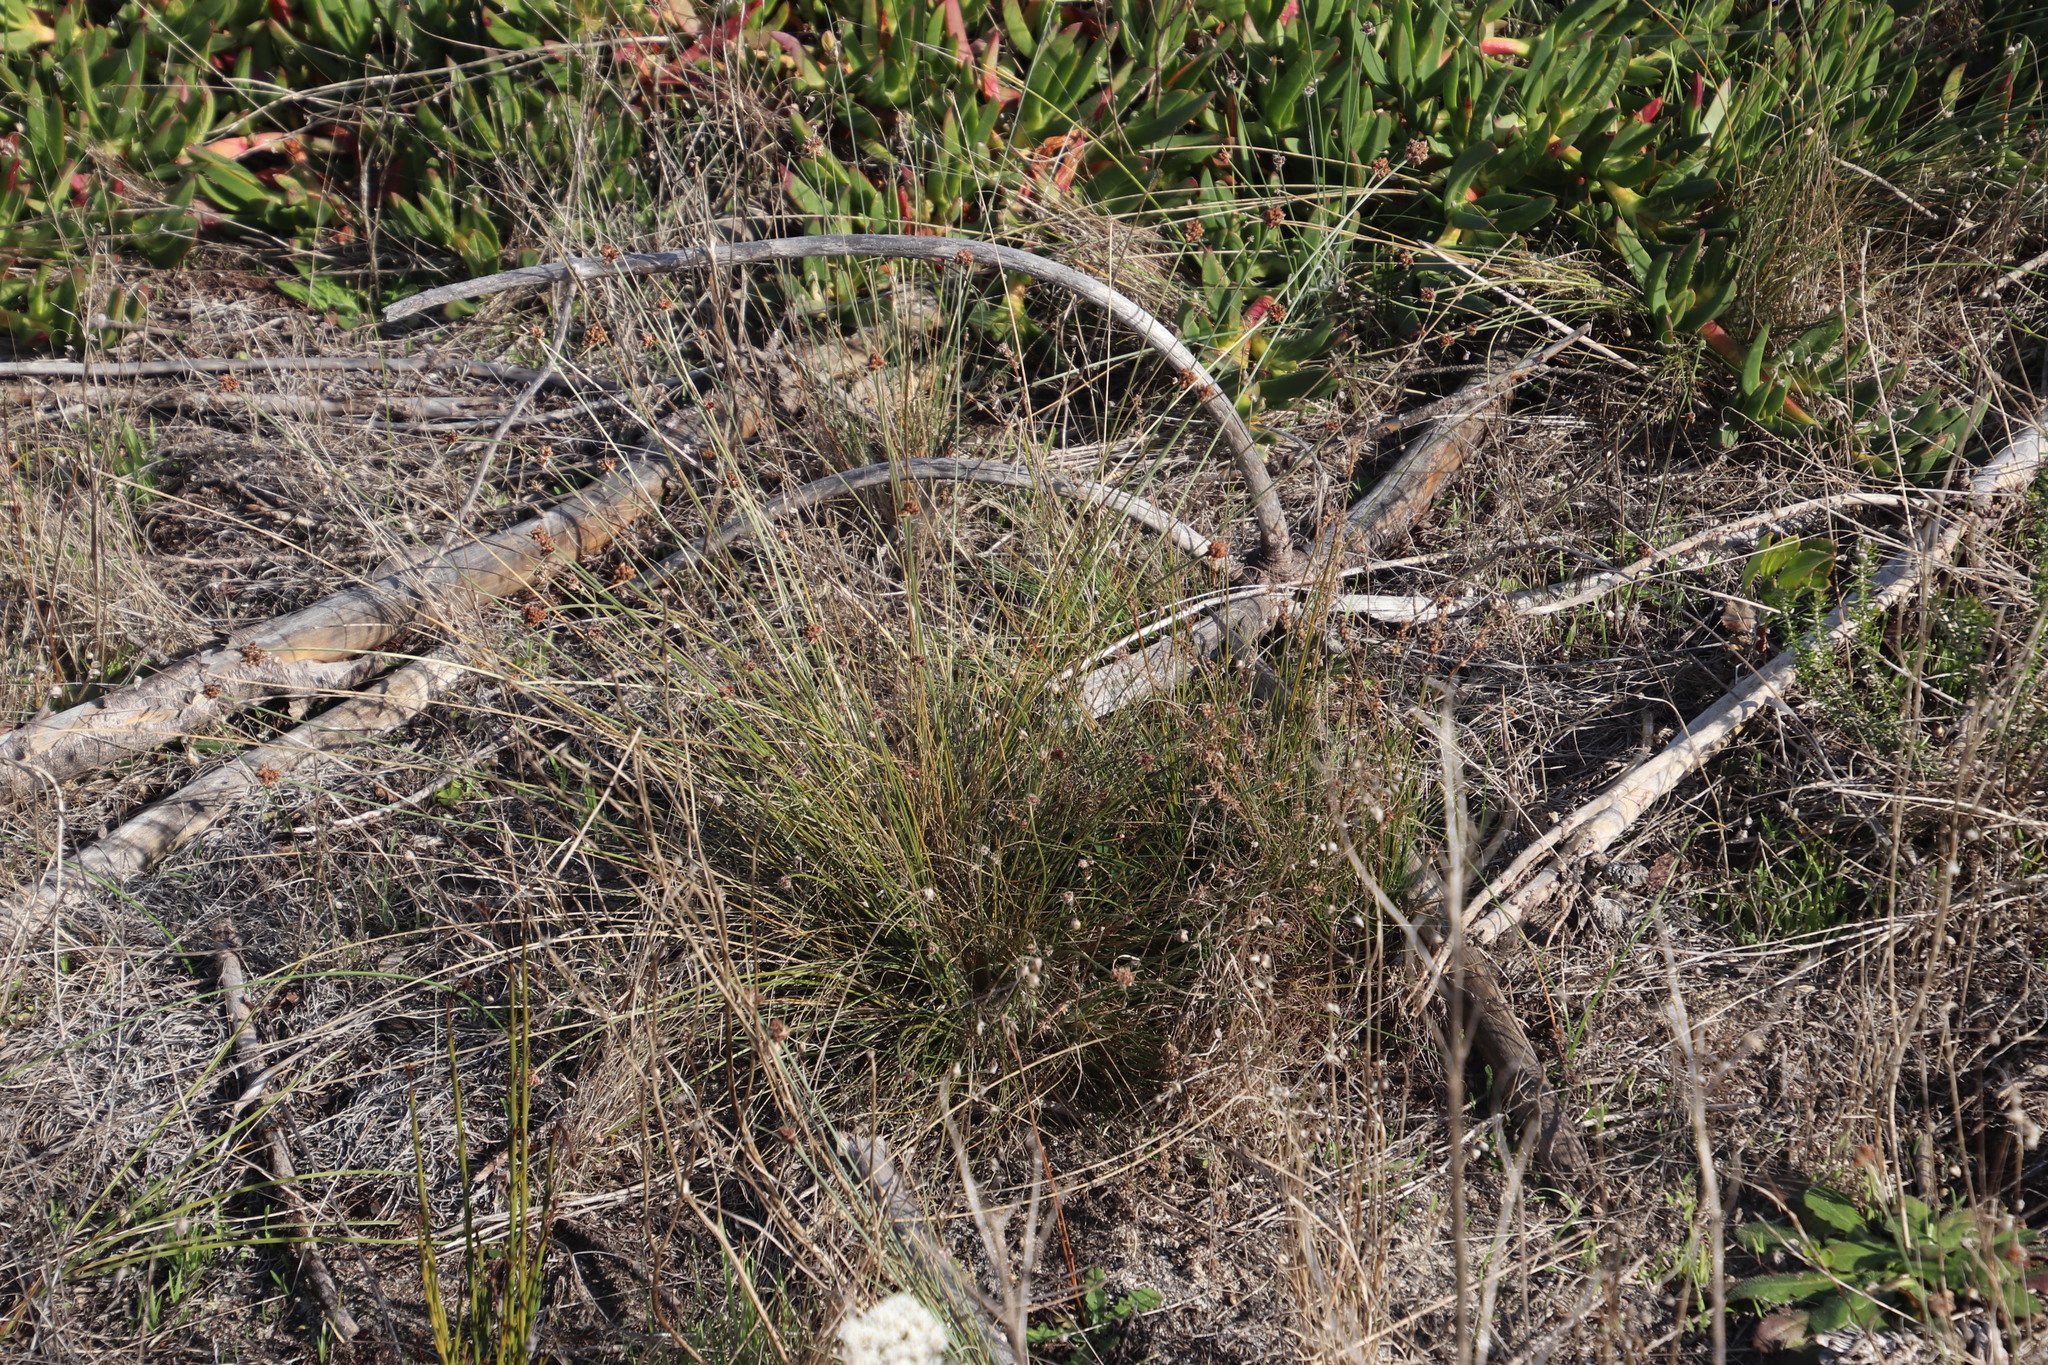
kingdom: Plantae
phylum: Tracheophyta
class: Liliopsida
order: Poales
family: Cyperaceae
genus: Ficinia
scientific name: Ficinia ecklonea
